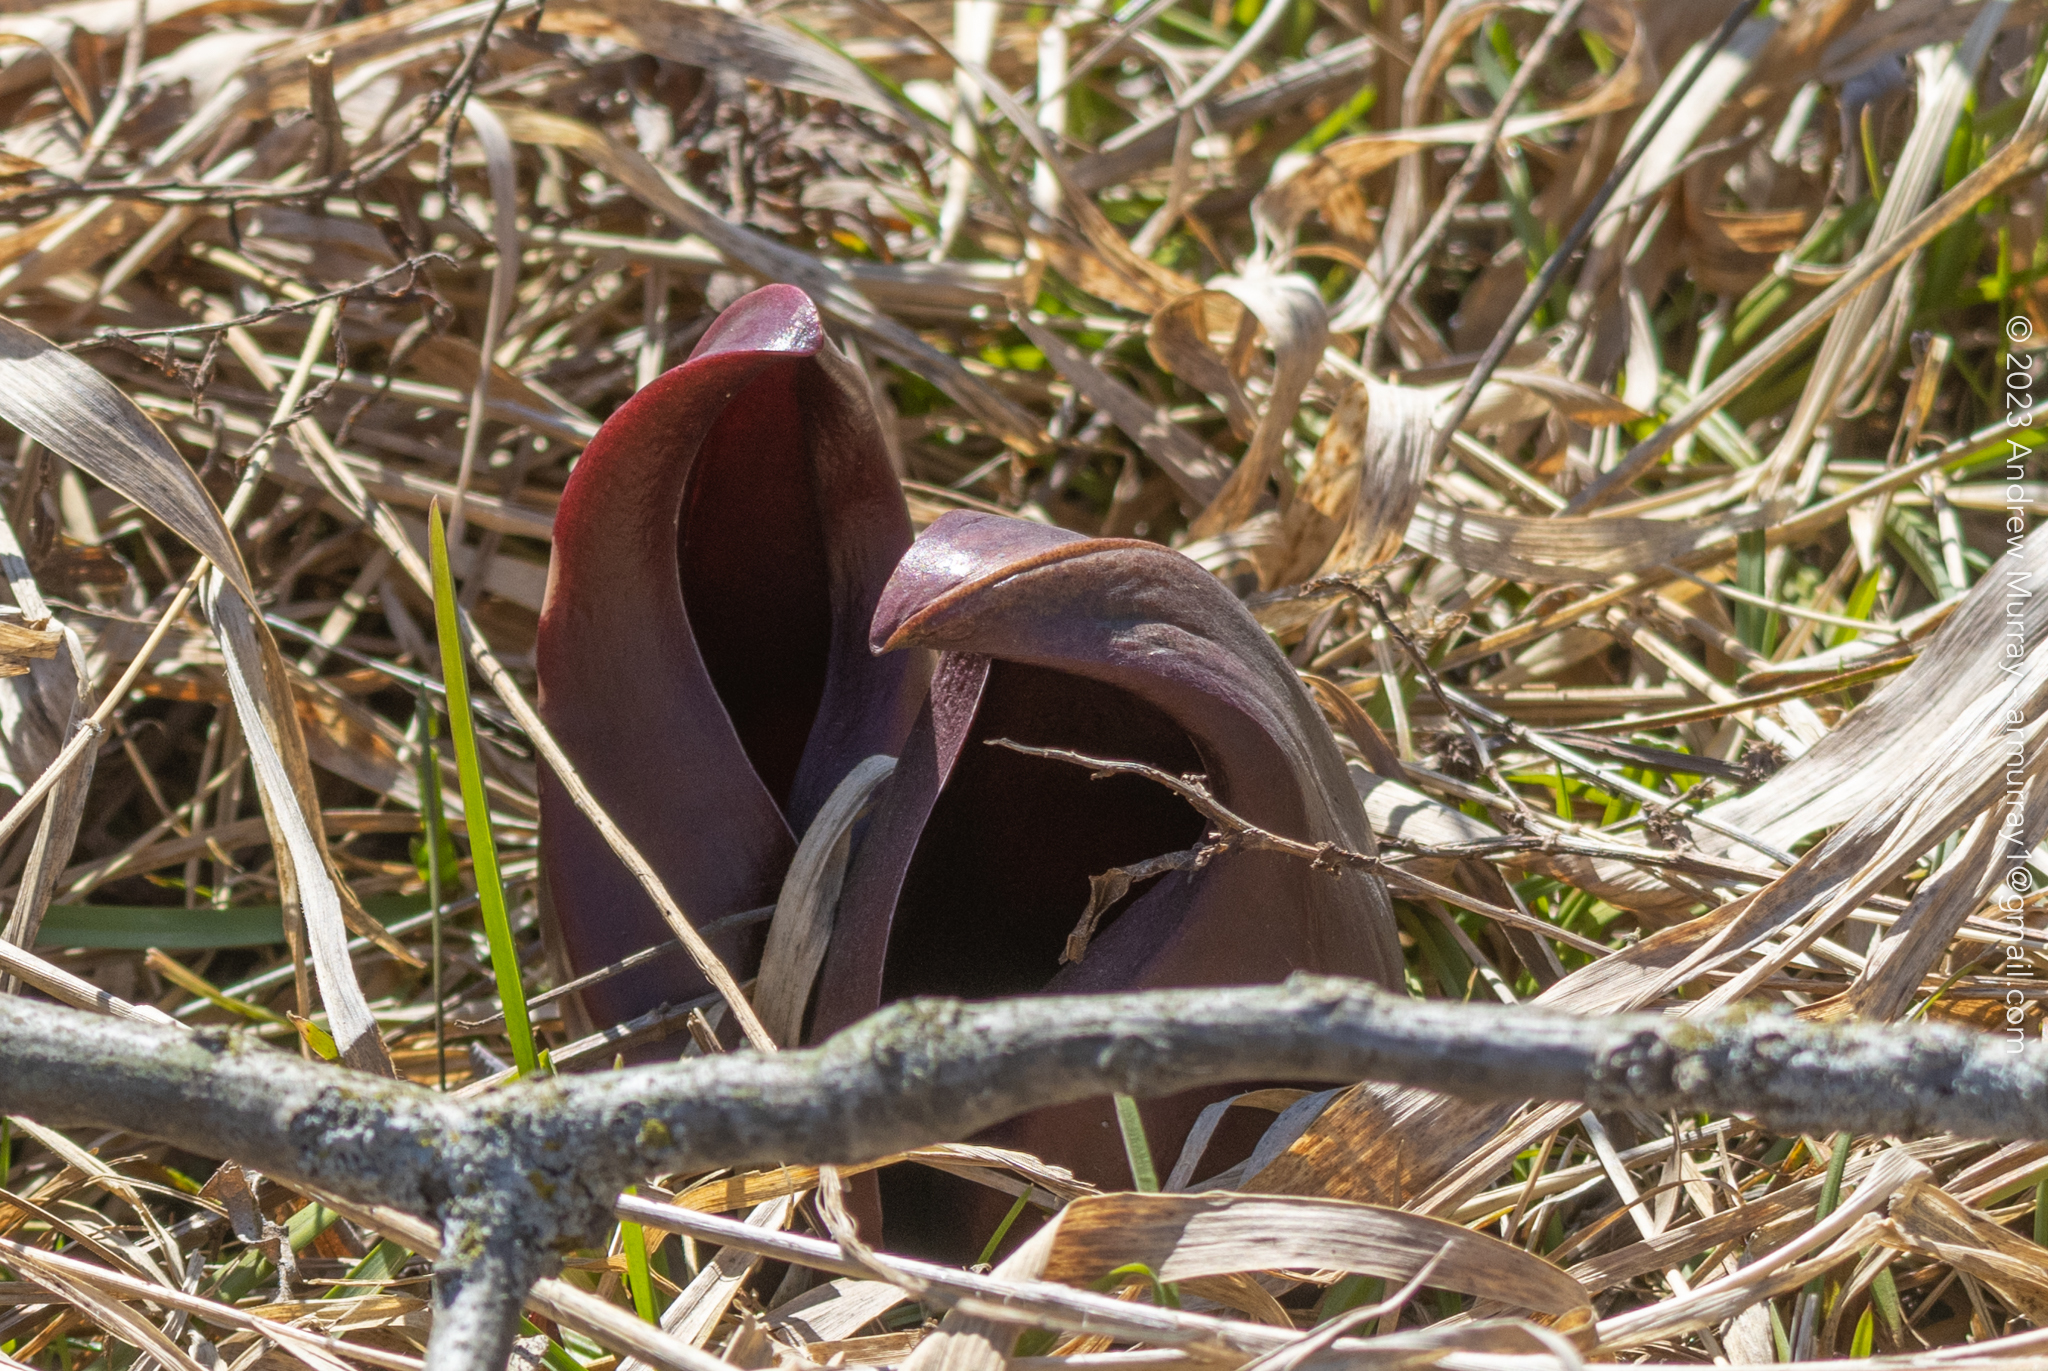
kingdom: Plantae
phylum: Tracheophyta
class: Liliopsida
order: Alismatales
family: Araceae
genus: Symplocarpus
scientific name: Symplocarpus foetidus
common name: Eastern skunk cabbage
